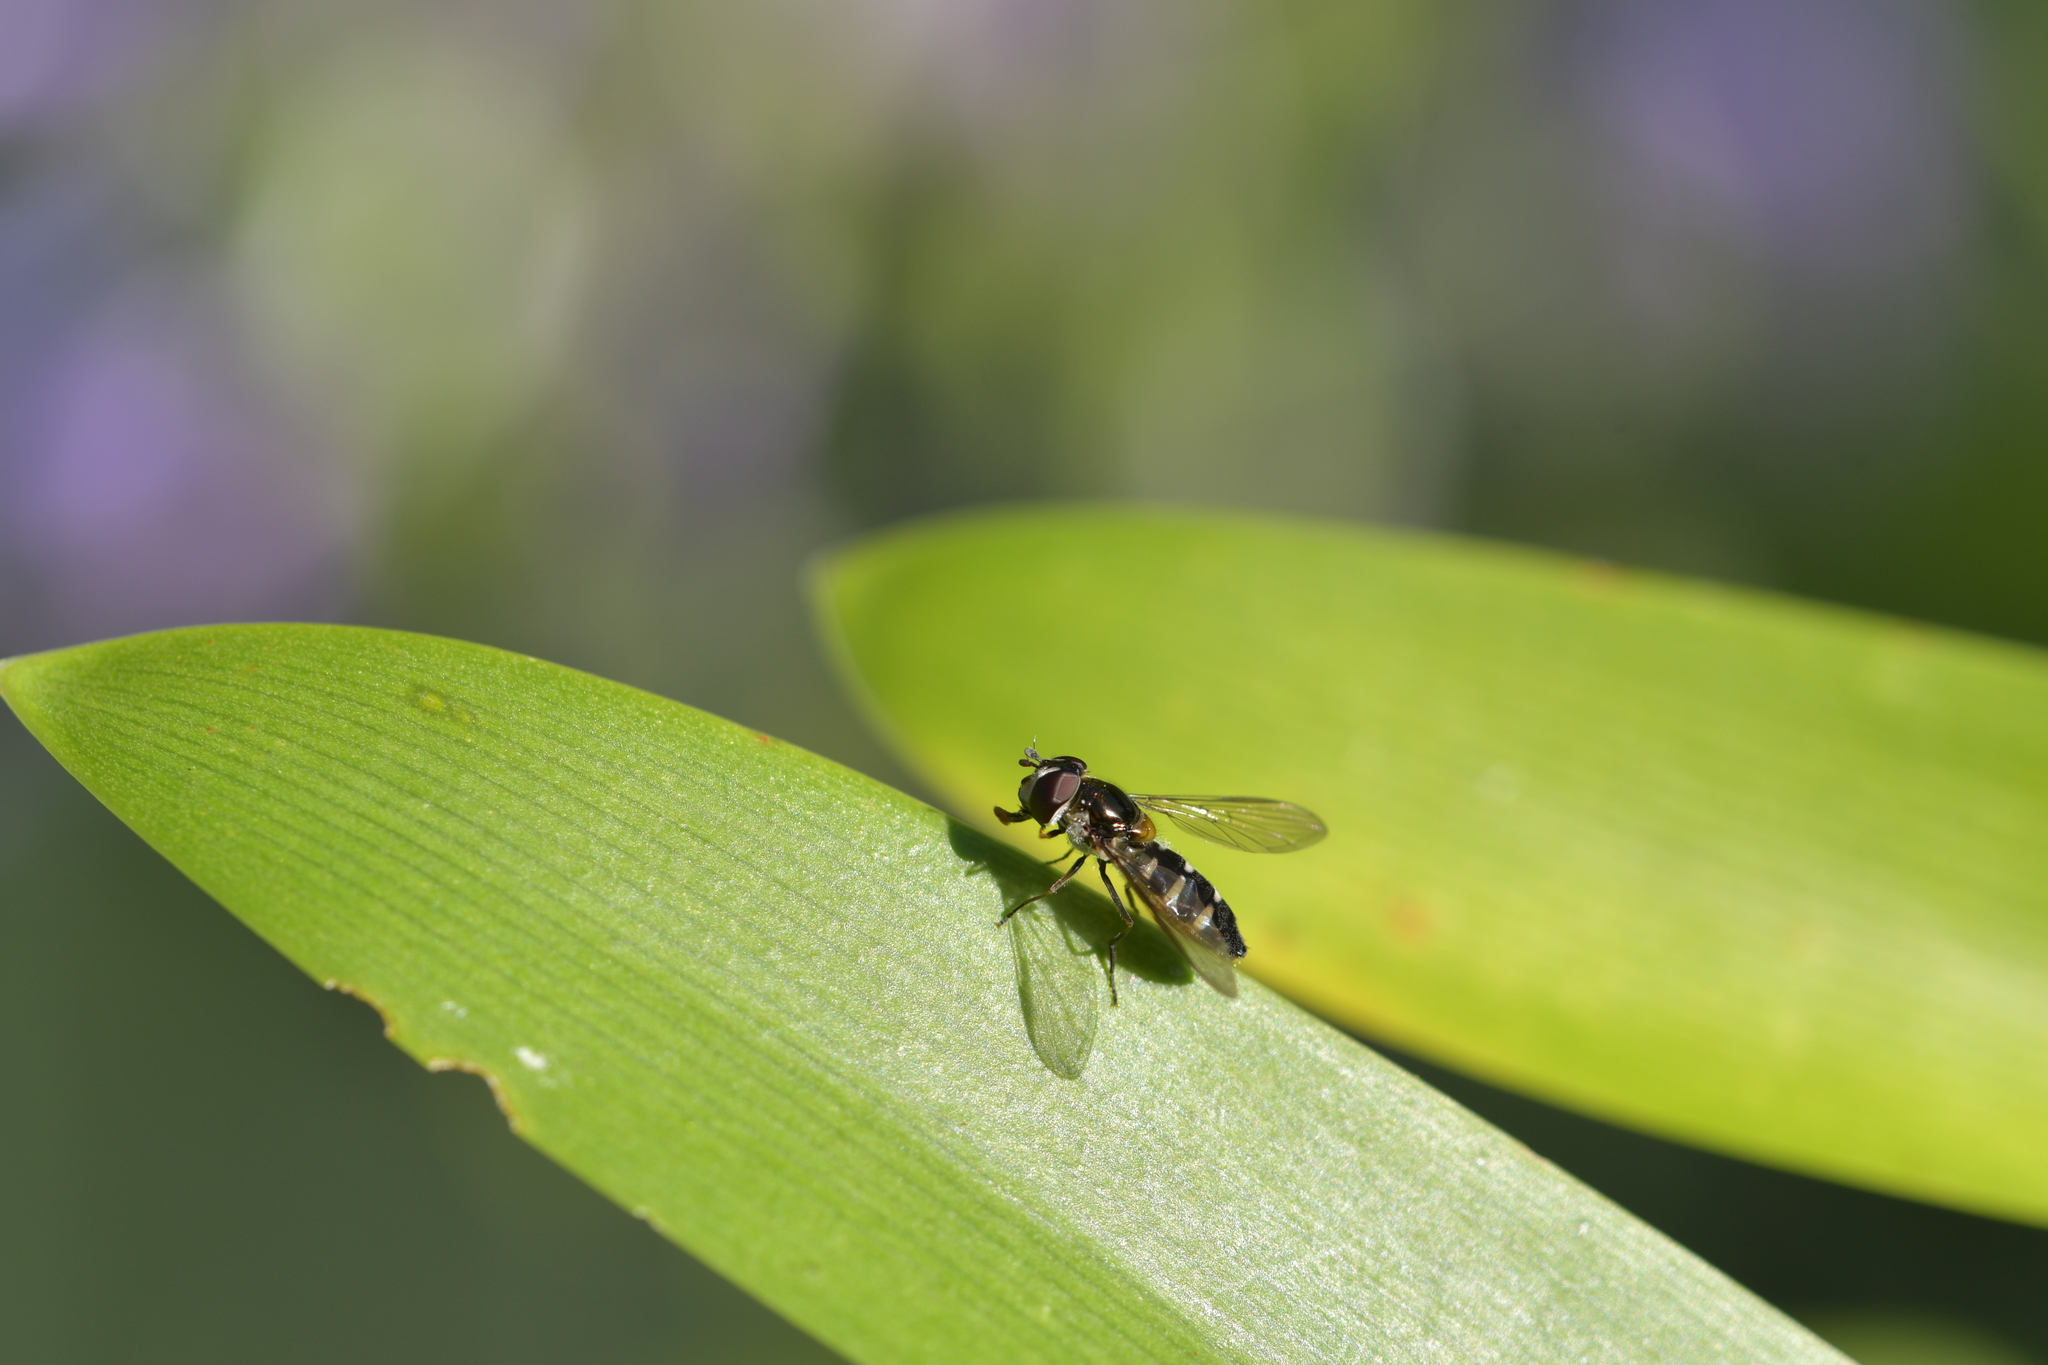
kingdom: Animalia
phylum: Arthropoda
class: Insecta
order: Diptera
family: Syrphidae
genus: Melangyna
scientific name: Melangyna novaezelandiae
